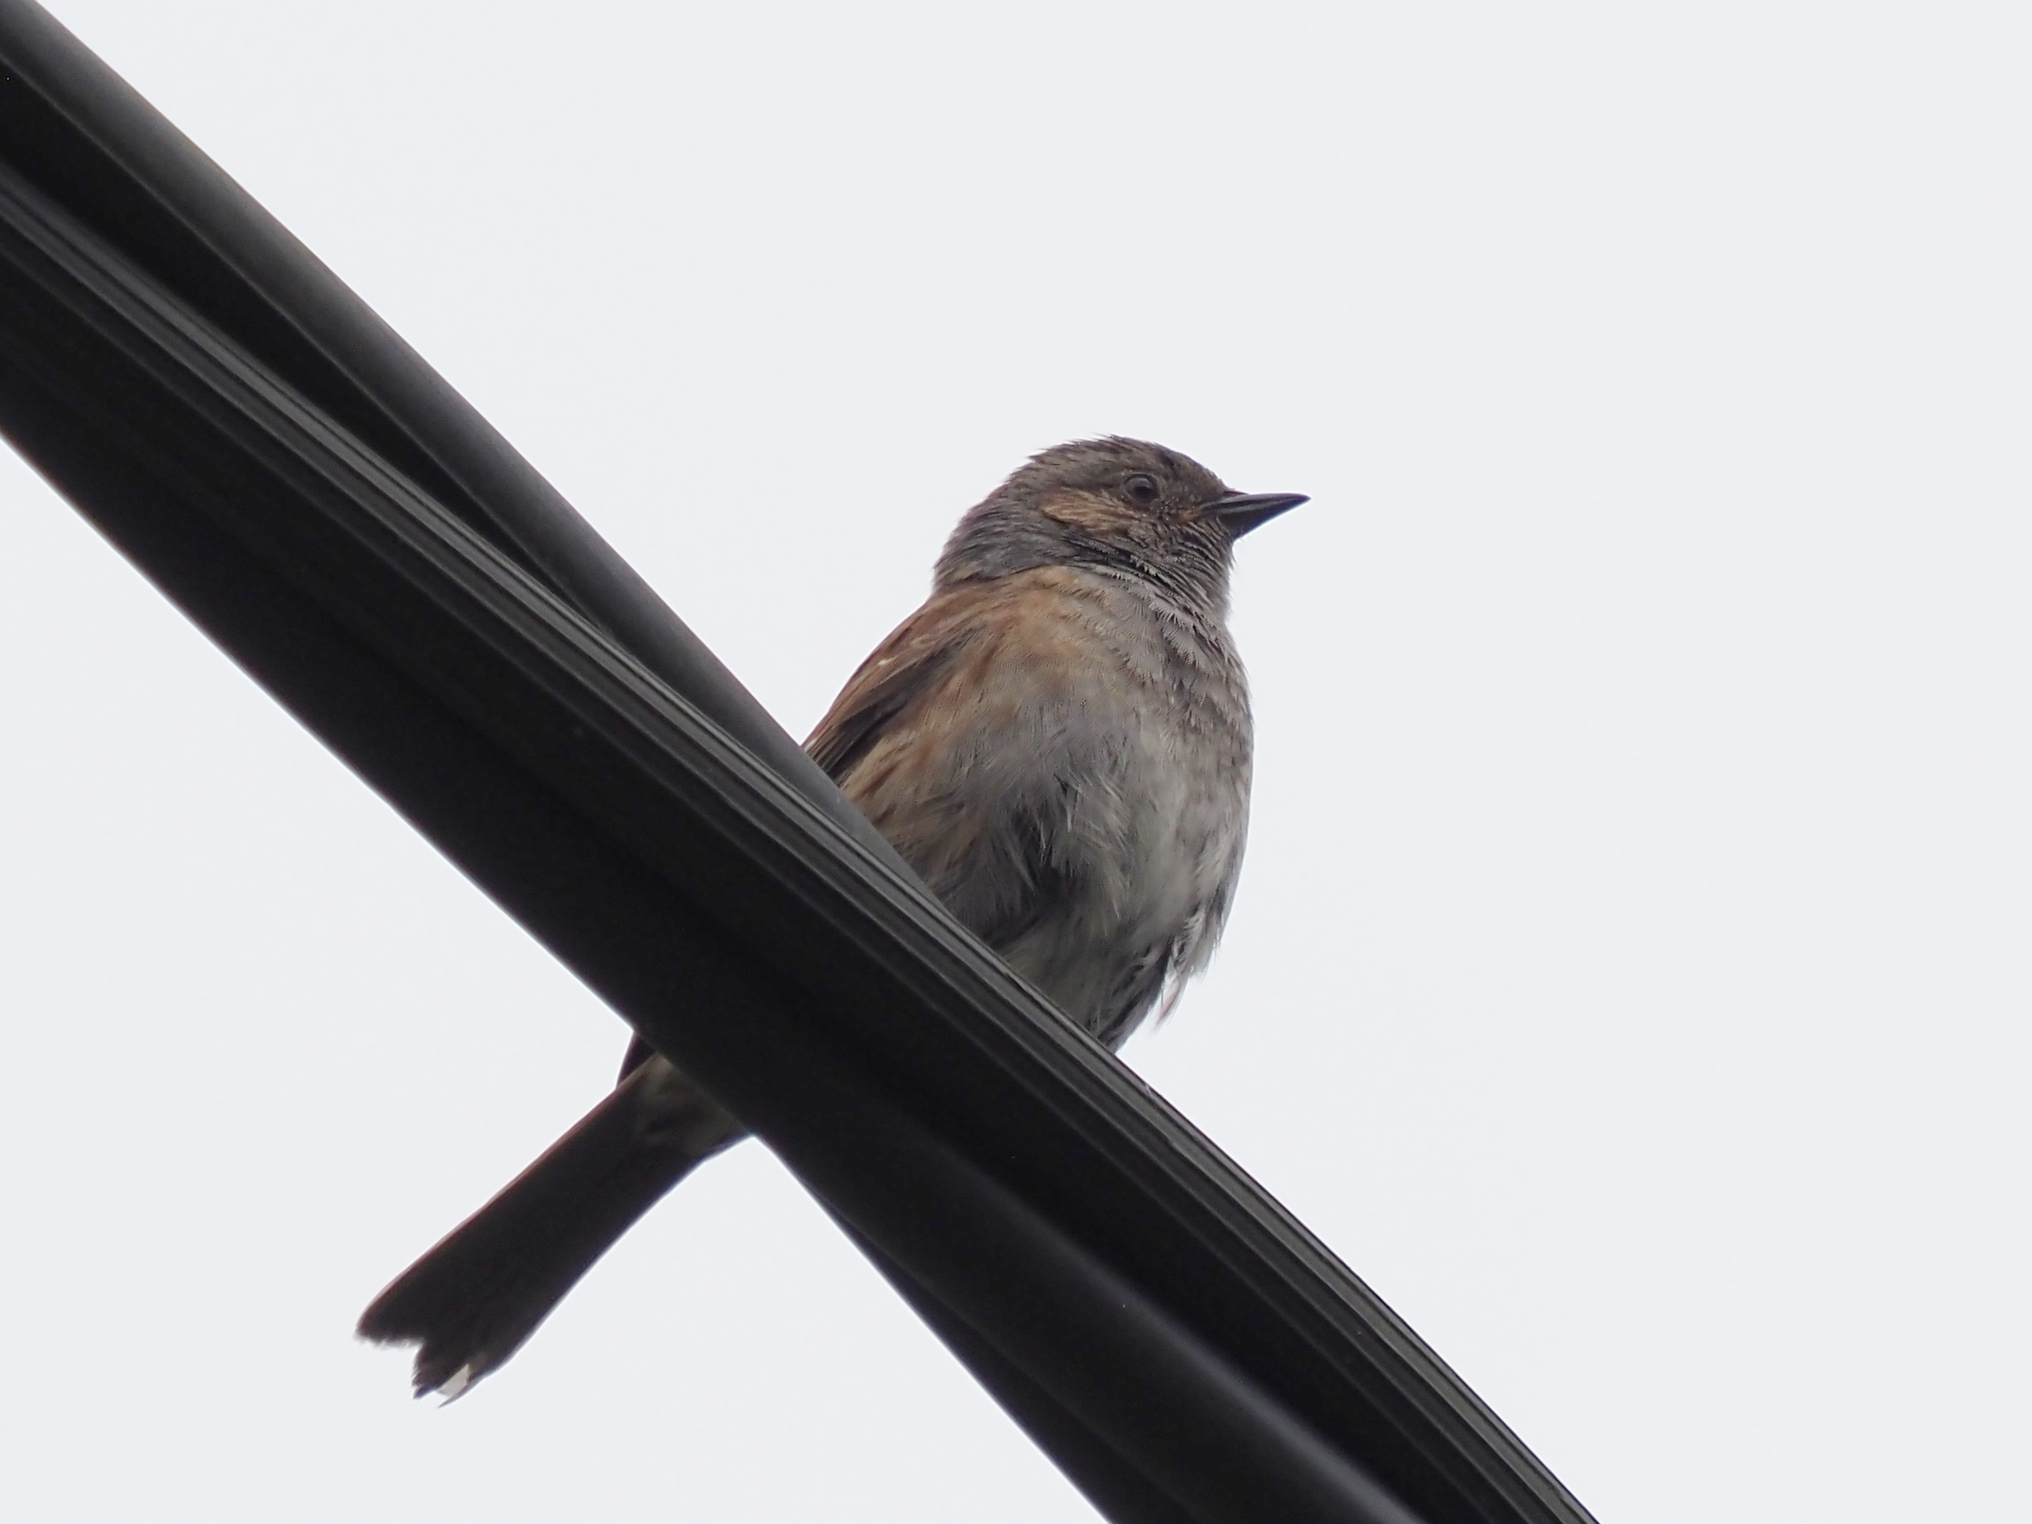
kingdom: Animalia
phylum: Chordata
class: Aves
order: Passeriformes
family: Prunellidae
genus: Prunella
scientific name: Prunella modularis
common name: Dunnock
